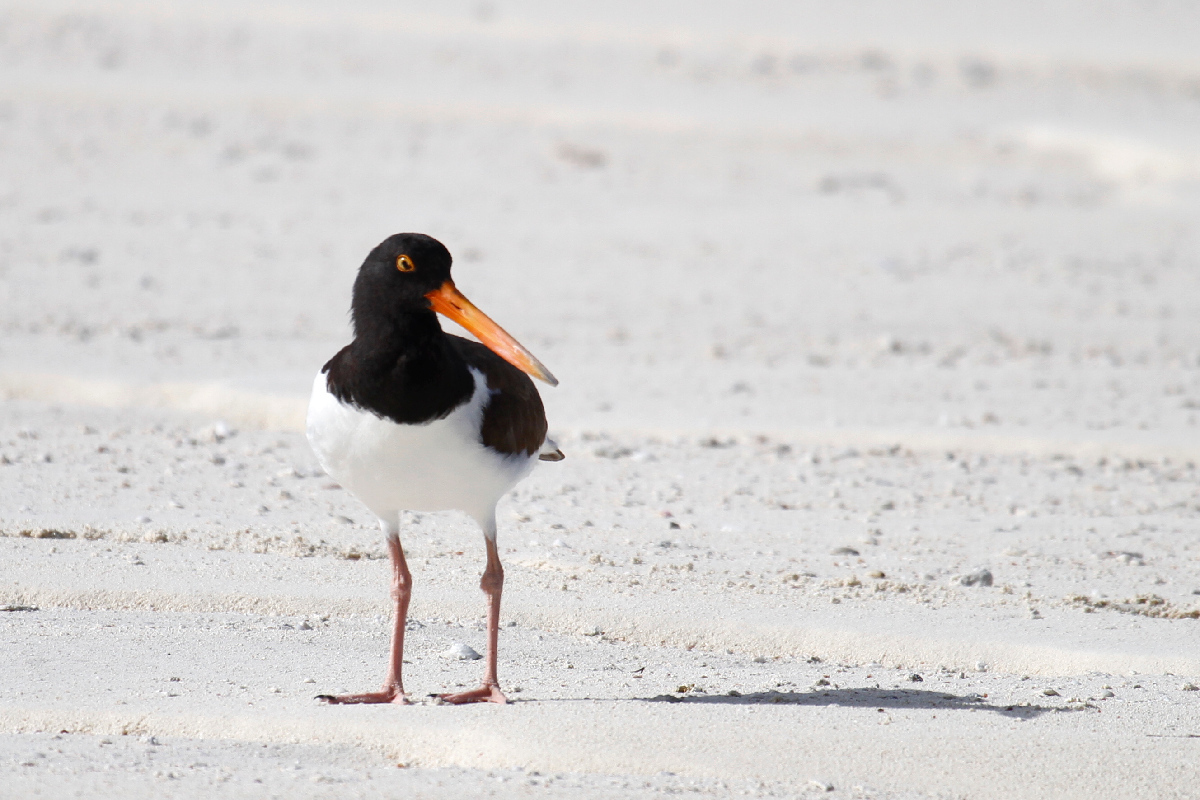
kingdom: Animalia
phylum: Chordata
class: Aves
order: Charadriiformes
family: Haematopodidae
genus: Haematopus
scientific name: Haematopus palliatus
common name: American oystercatcher
